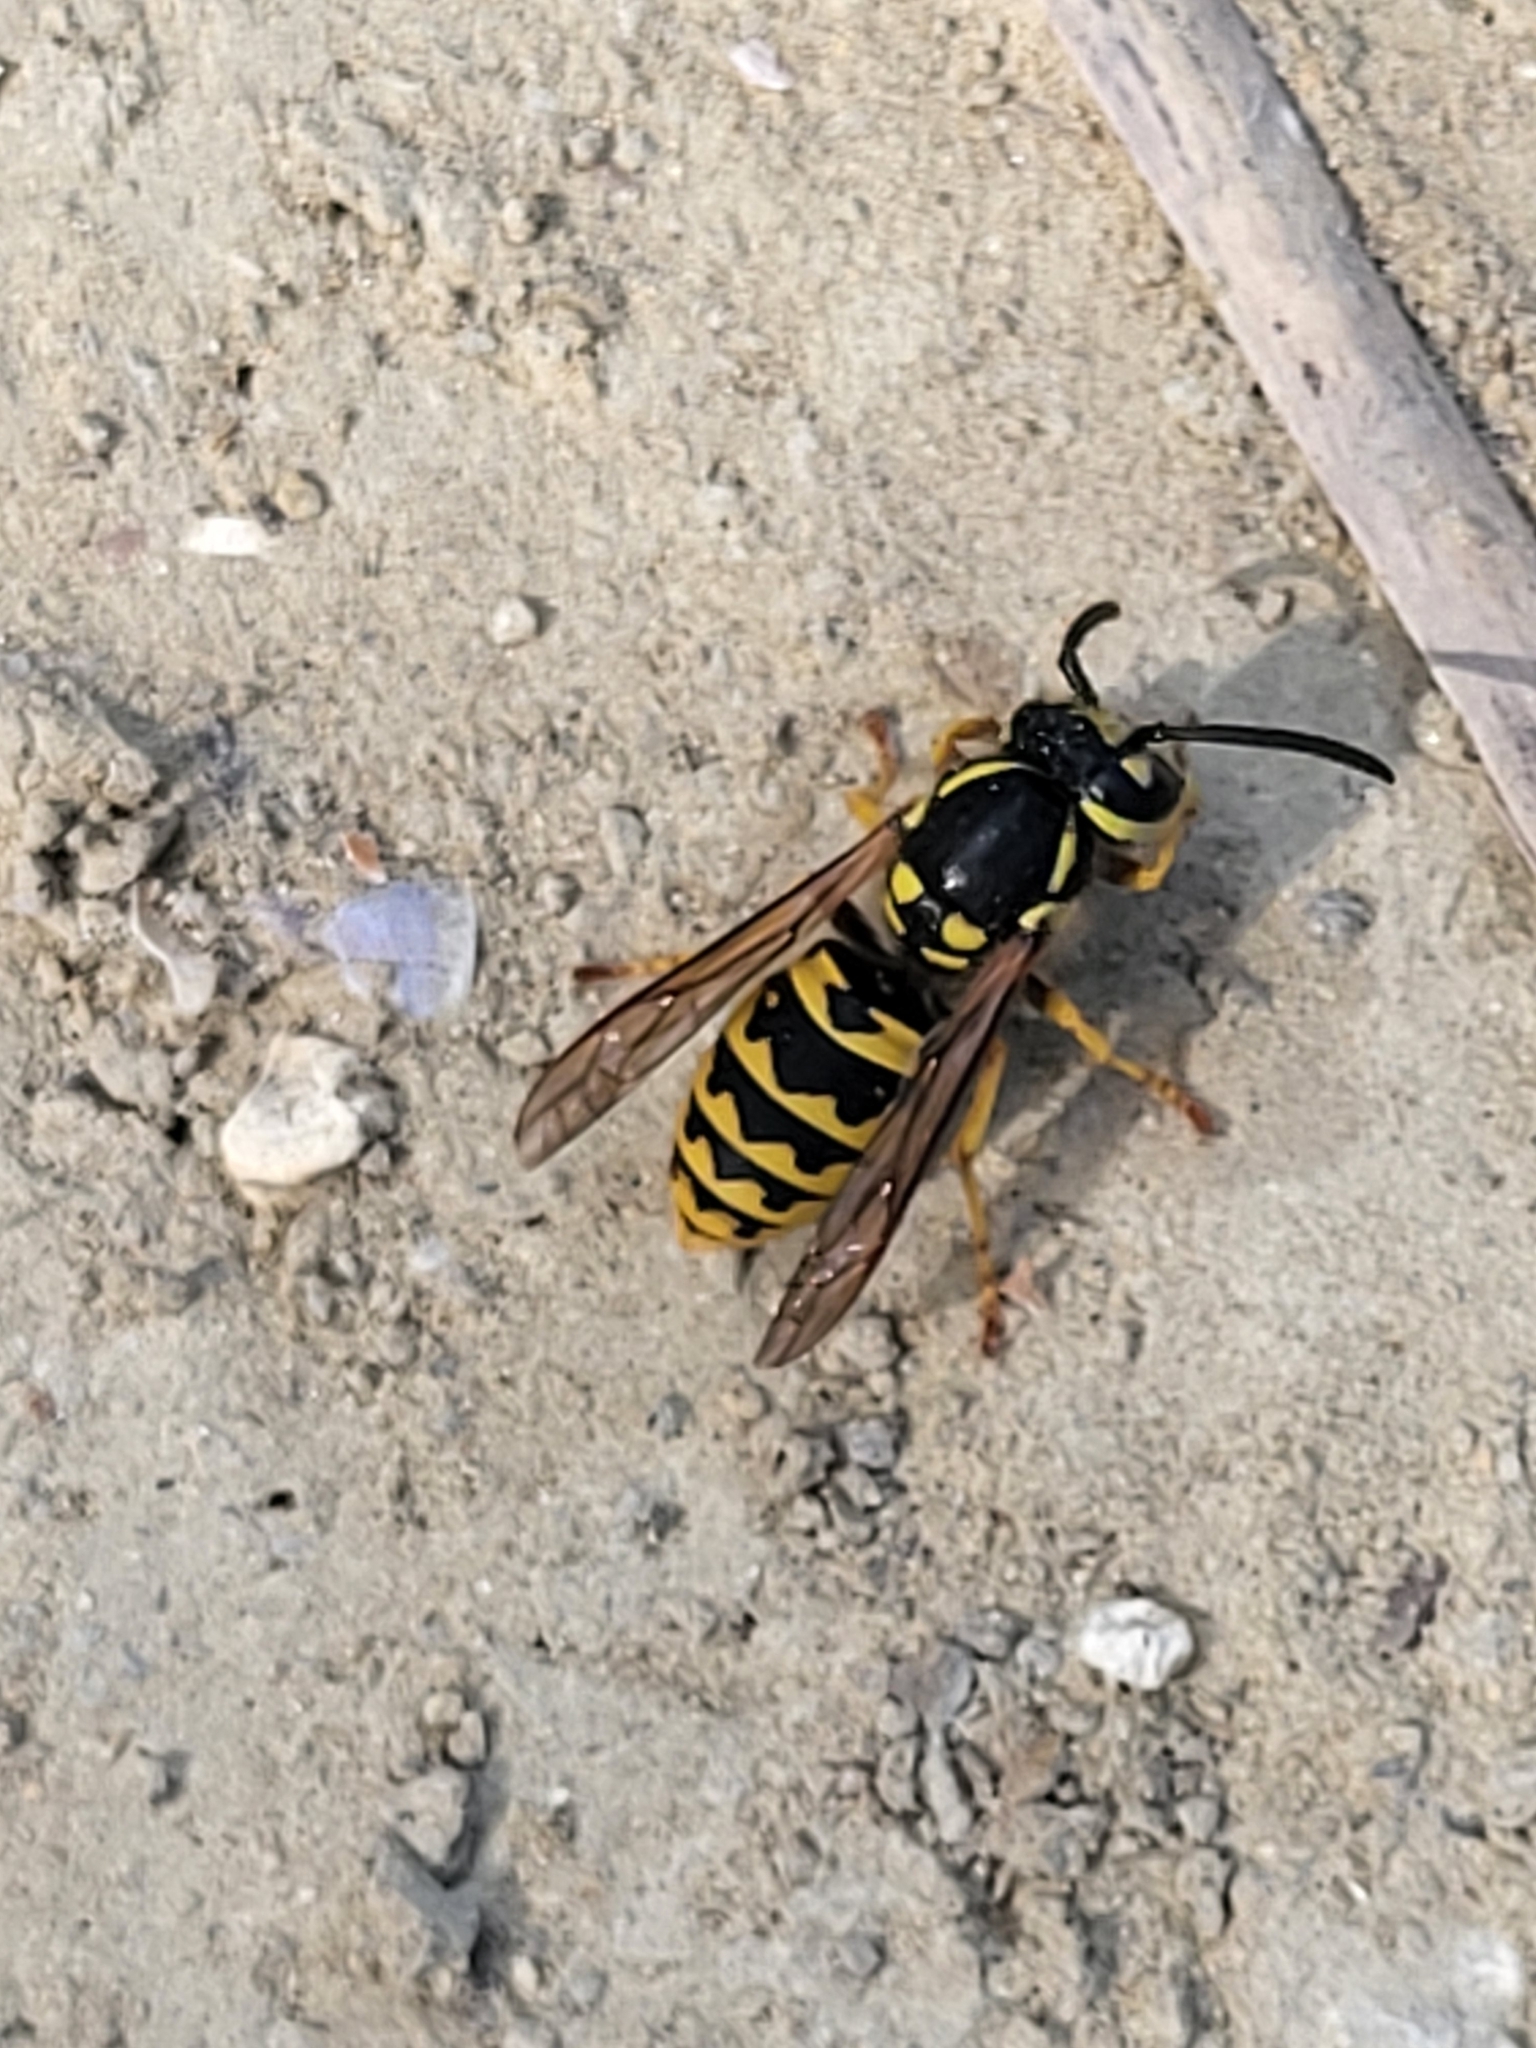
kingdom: Animalia
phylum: Arthropoda
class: Insecta
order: Hymenoptera
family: Vespidae
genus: Vespula
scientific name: Vespula germanica
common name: German wasp
